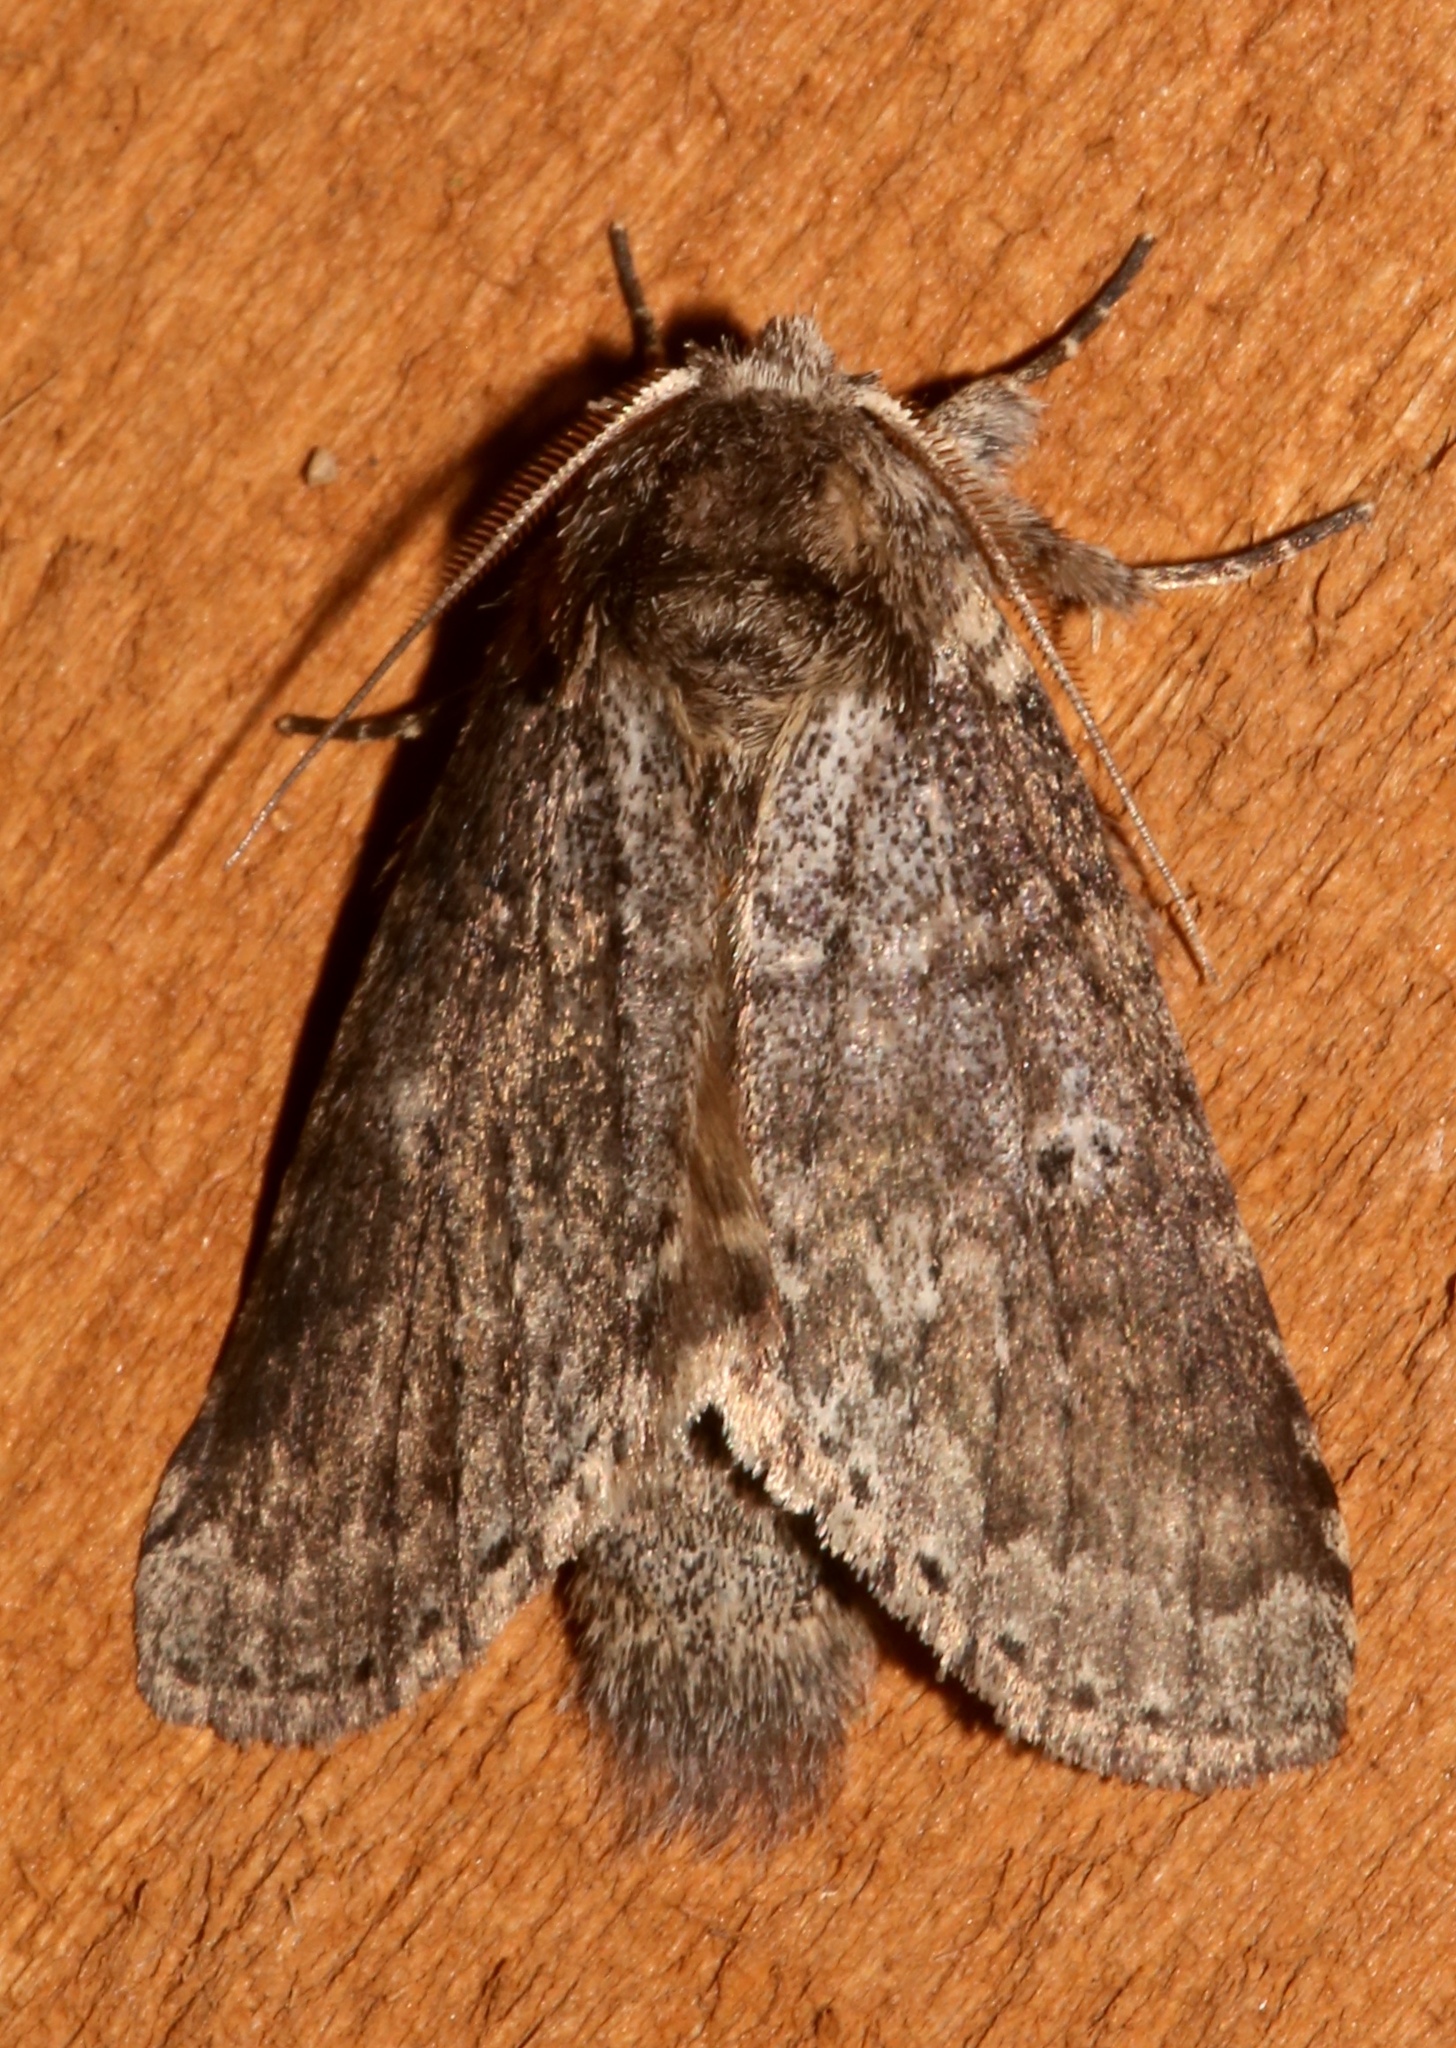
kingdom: Animalia
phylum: Arthropoda
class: Insecta
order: Lepidoptera
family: Notodontidae
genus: Lochmaeus
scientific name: Lochmaeus manteo
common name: Variable oakleaf caterpillar moth
